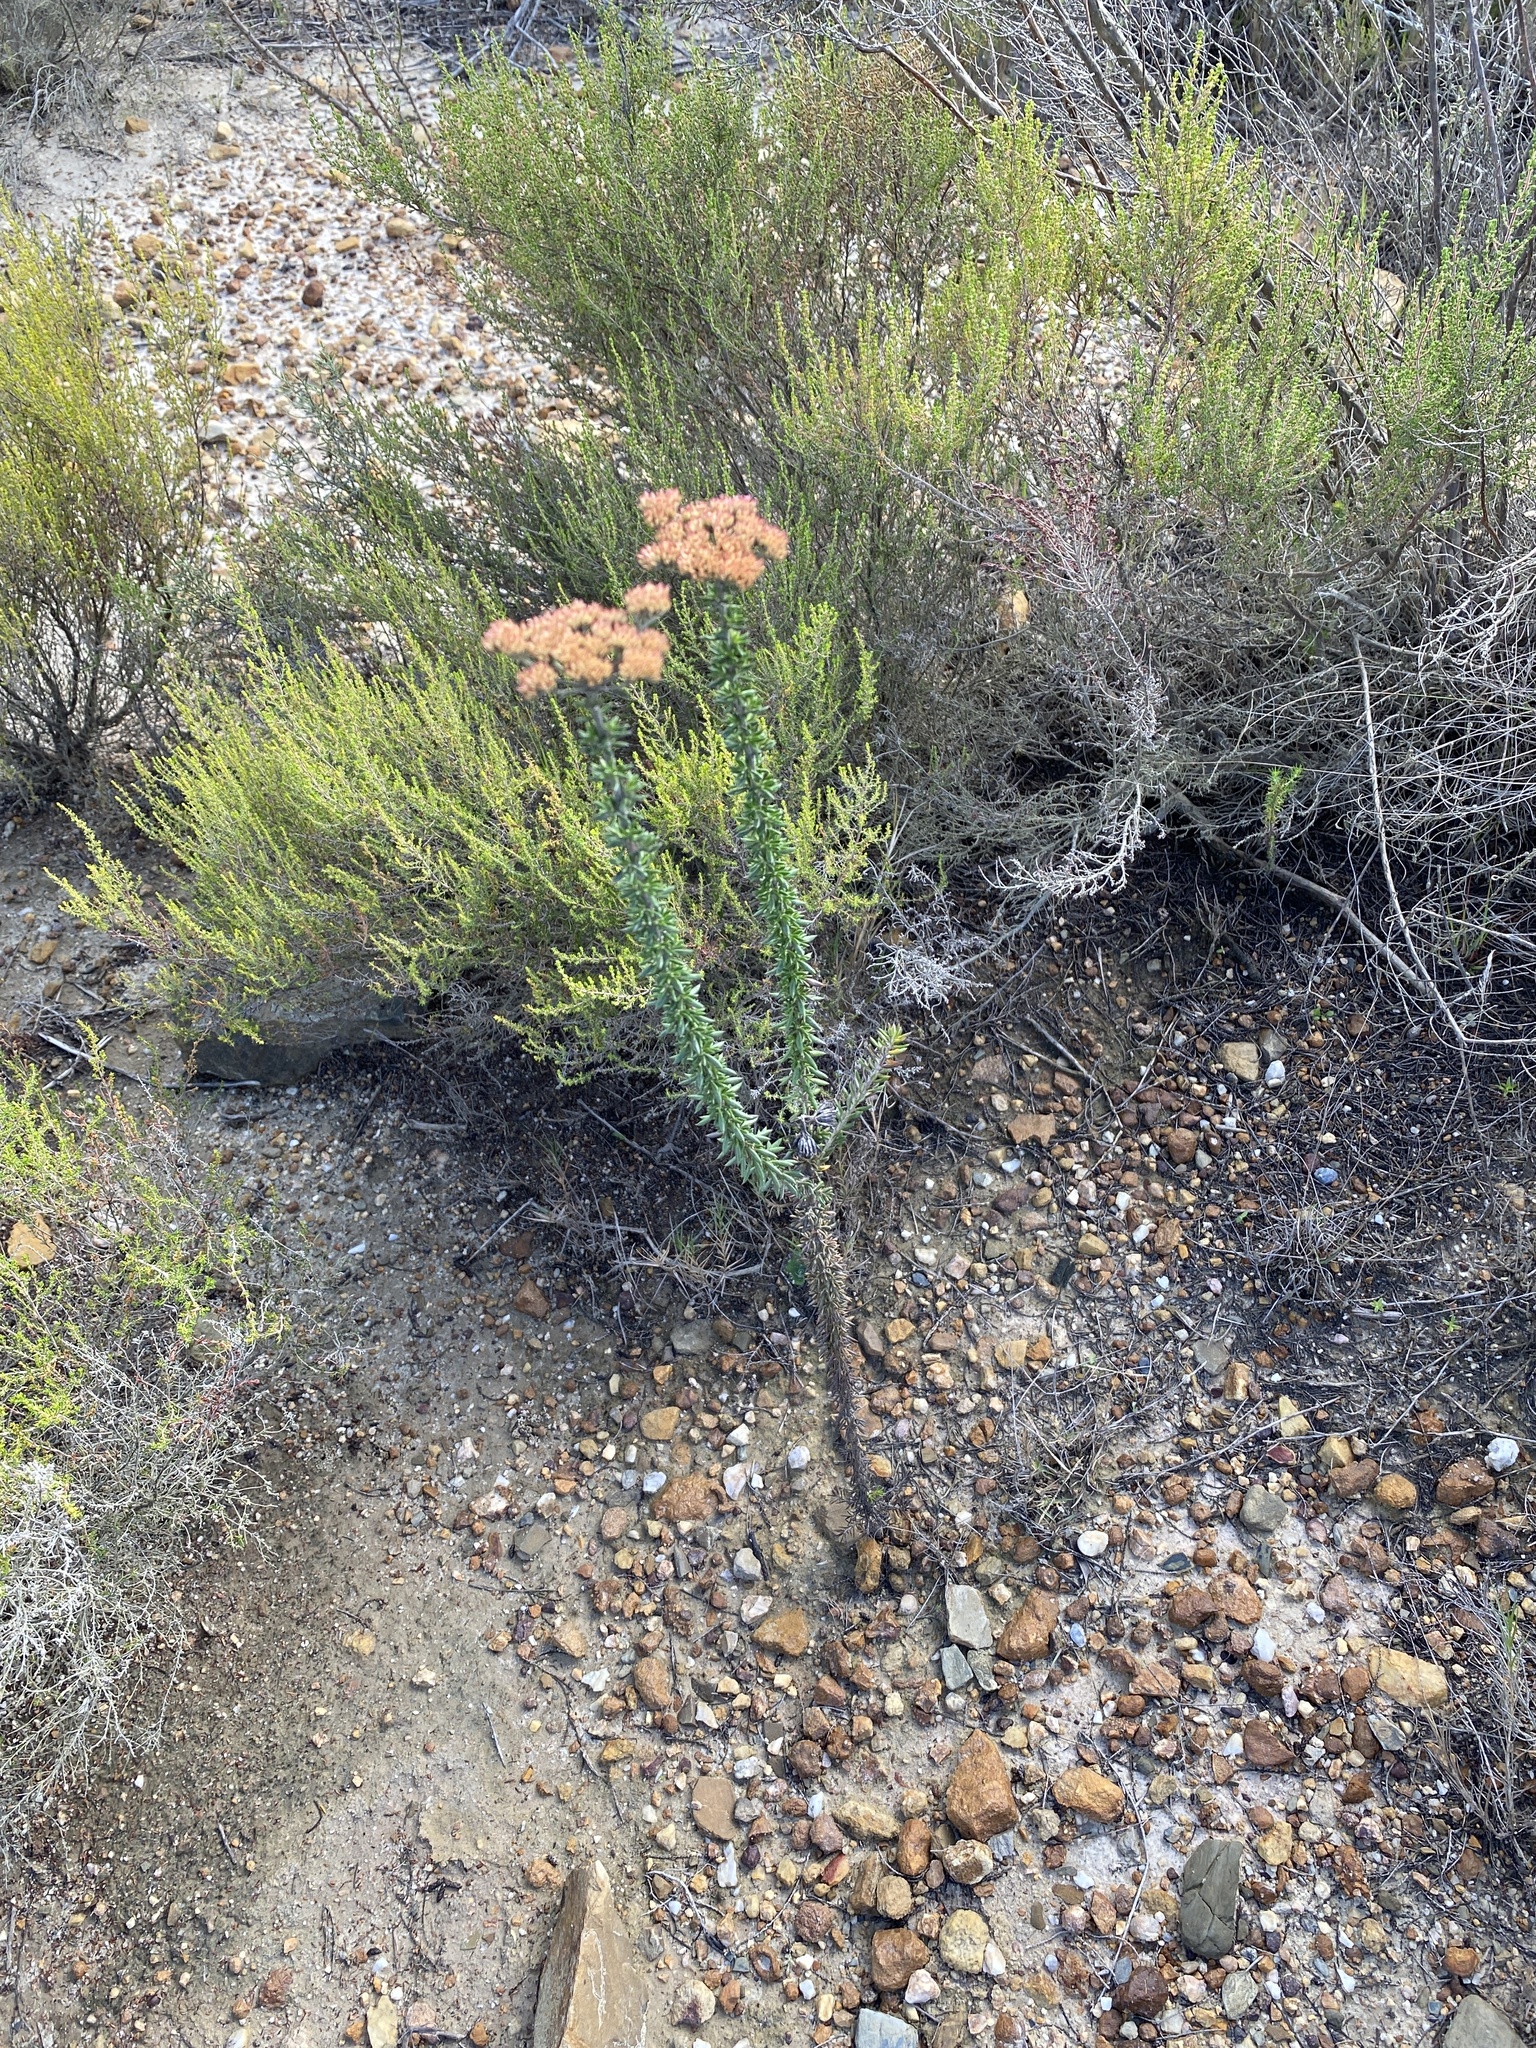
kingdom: Plantae
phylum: Tracheophyta
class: Magnoliopsida
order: Asterales
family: Asteraceae
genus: Metalasia
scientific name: Metalasia densa
